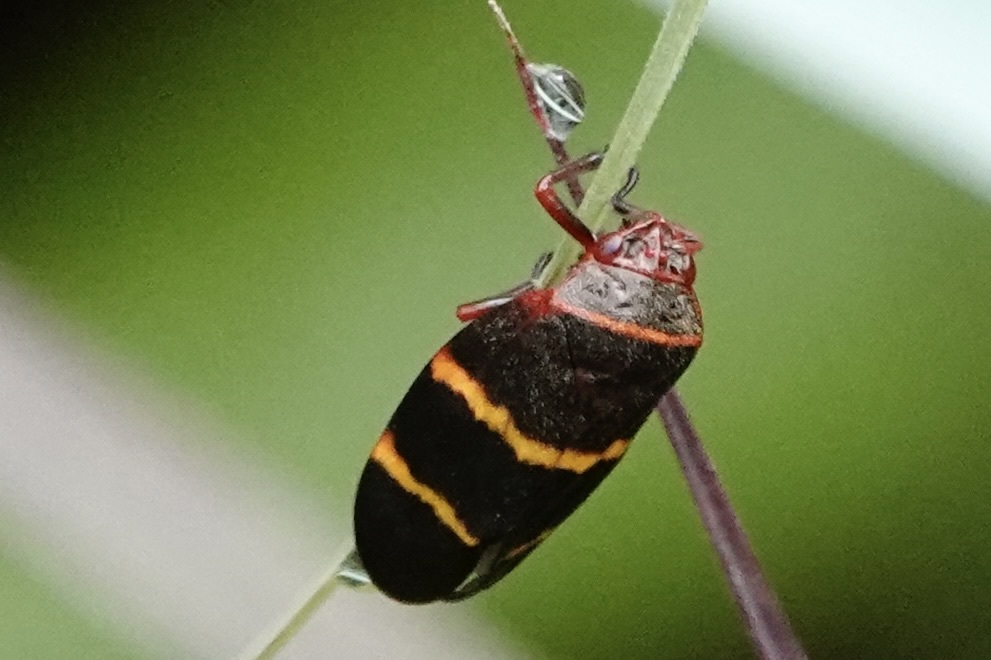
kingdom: Animalia
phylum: Arthropoda
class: Insecta
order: Hemiptera
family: Cercopidae
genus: Prosapia
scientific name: Prosapia bicincta
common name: Twolined spittlebug
